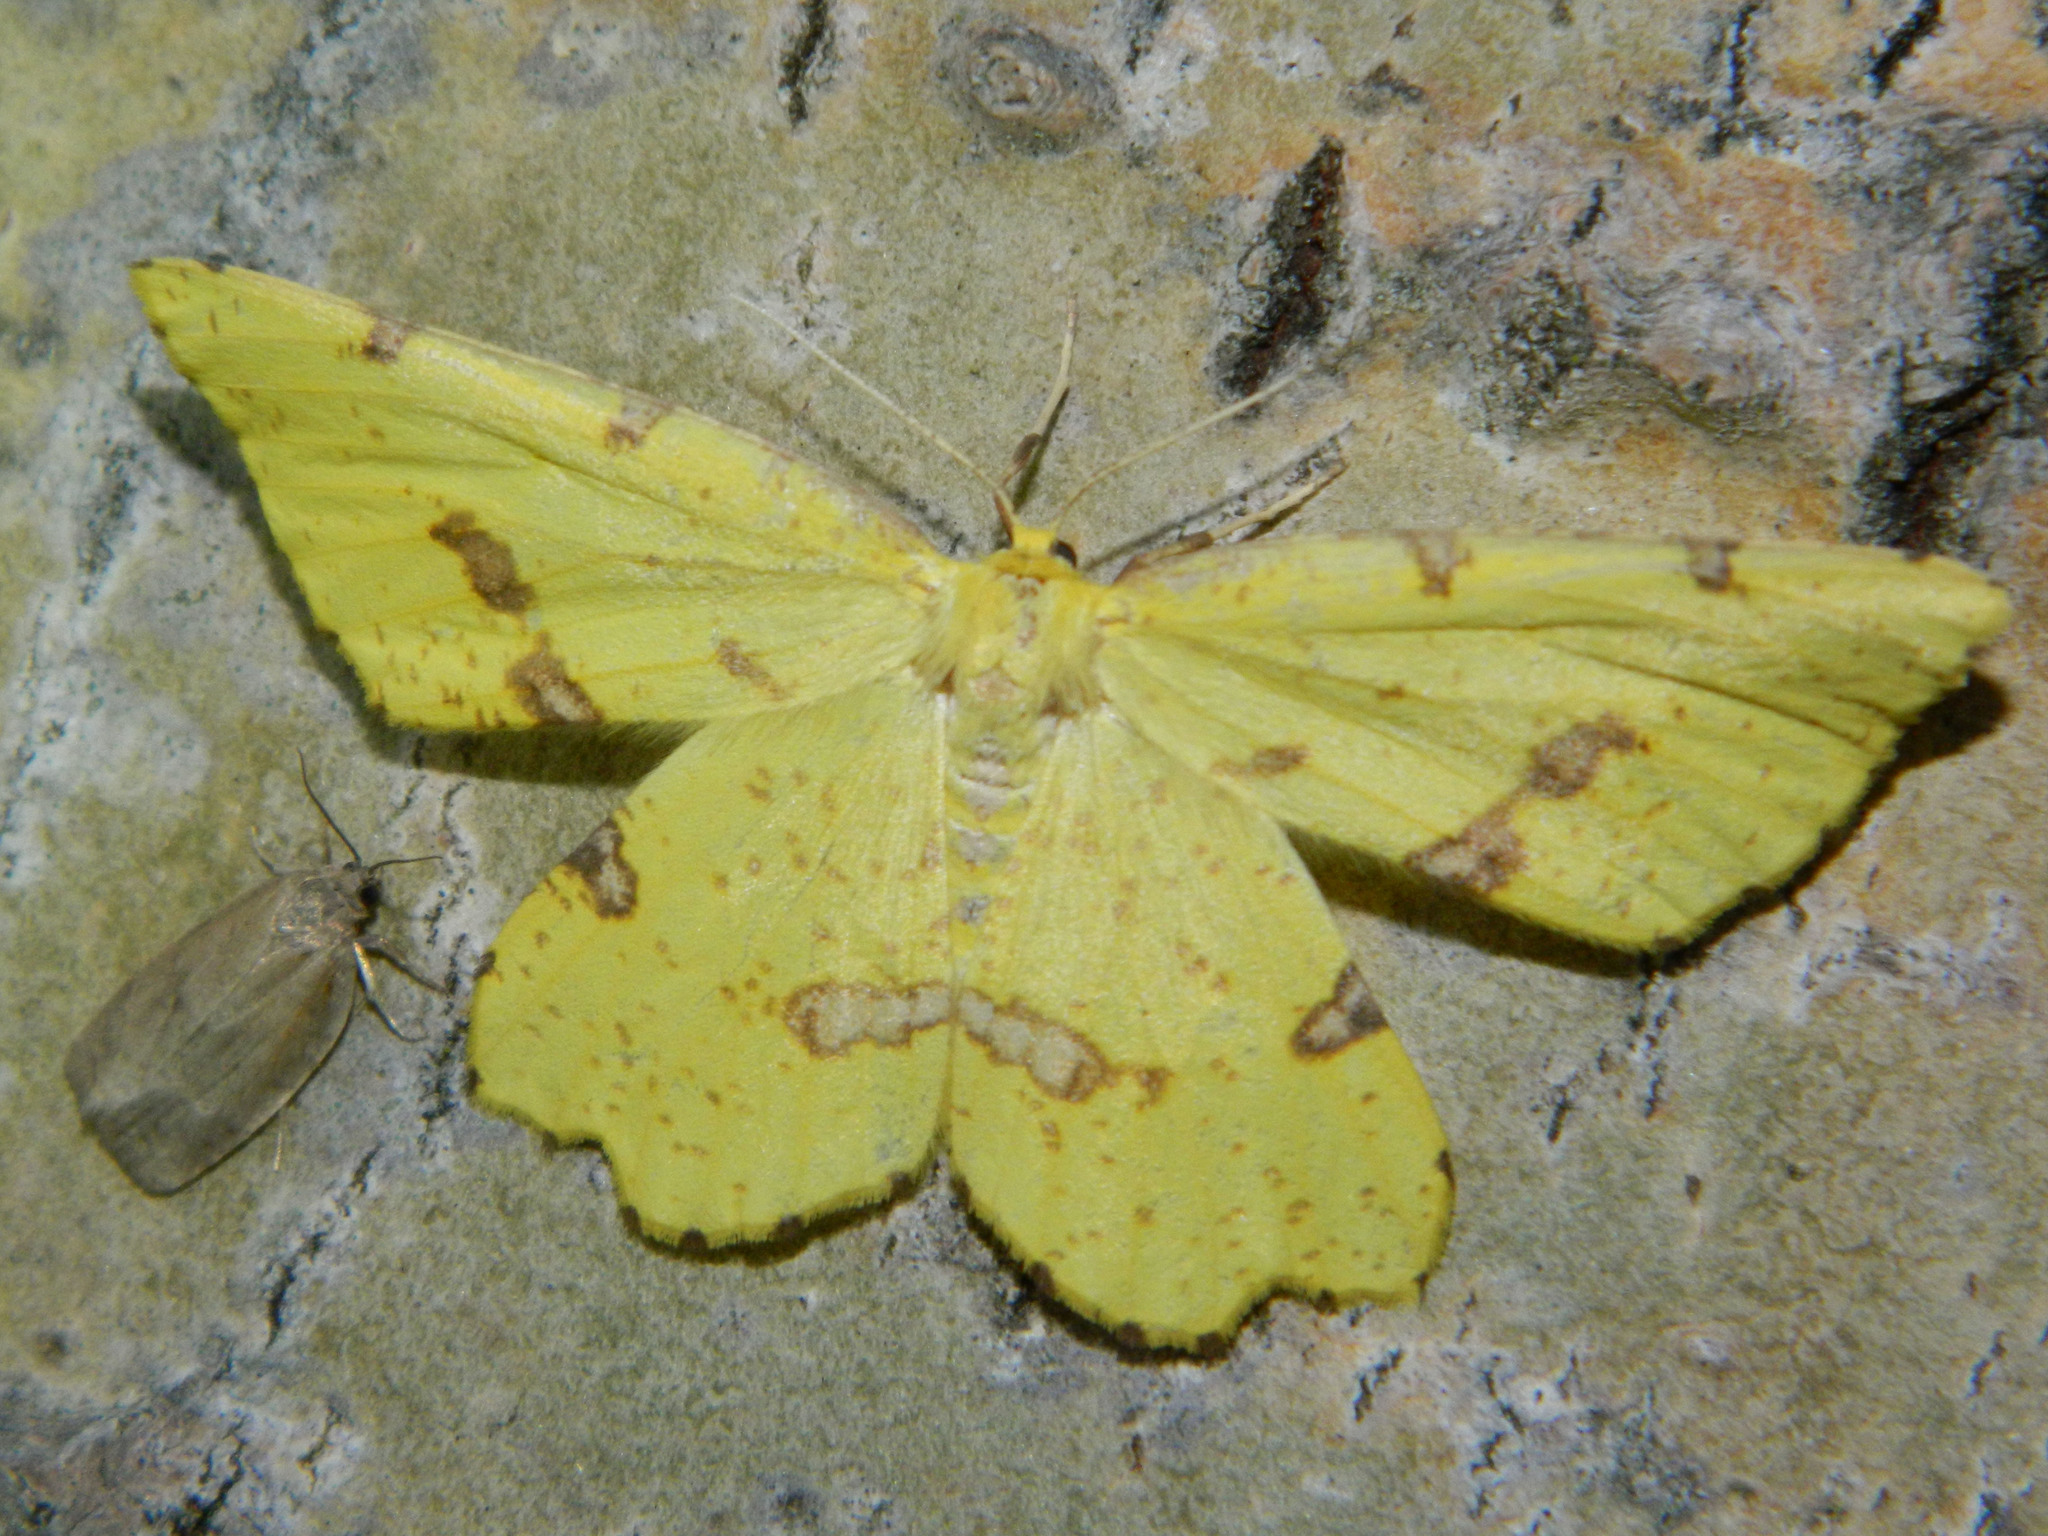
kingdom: Animalia
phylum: Arthropoda
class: Insecta
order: Lepidoptera
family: Geometridae
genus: Xanthotype
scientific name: Xanthotype
